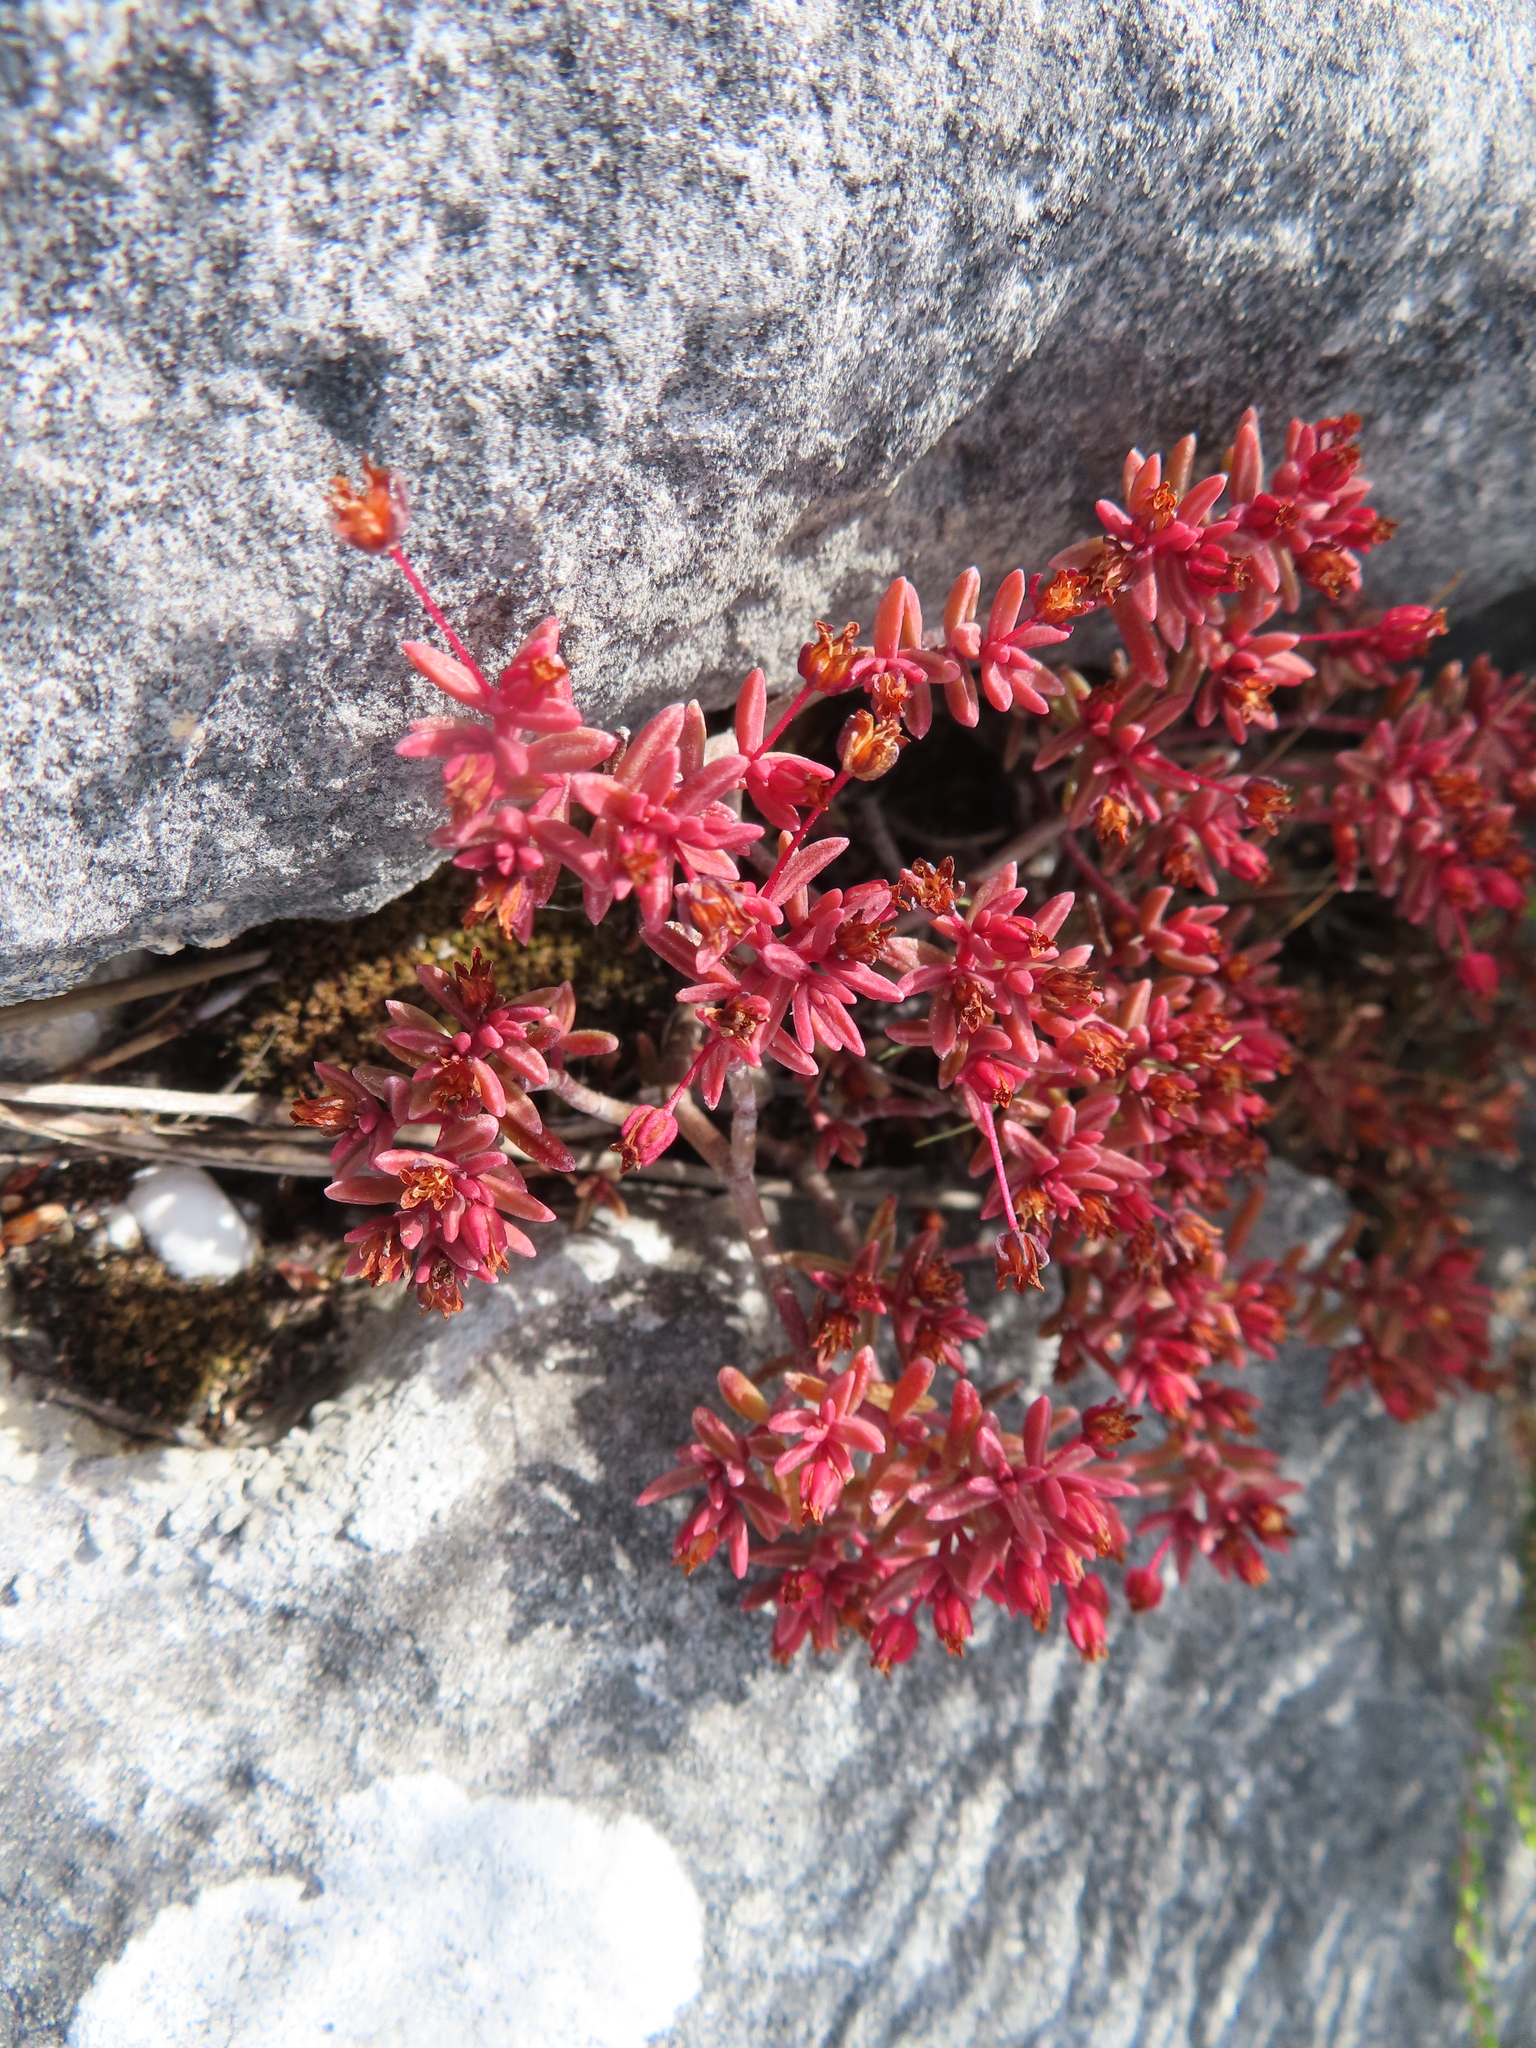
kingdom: Plantae
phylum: Tracheophyta
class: Magnoliopsida
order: Saxifragales
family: Crassulaceae
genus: Crassula
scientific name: Crassula expansa
